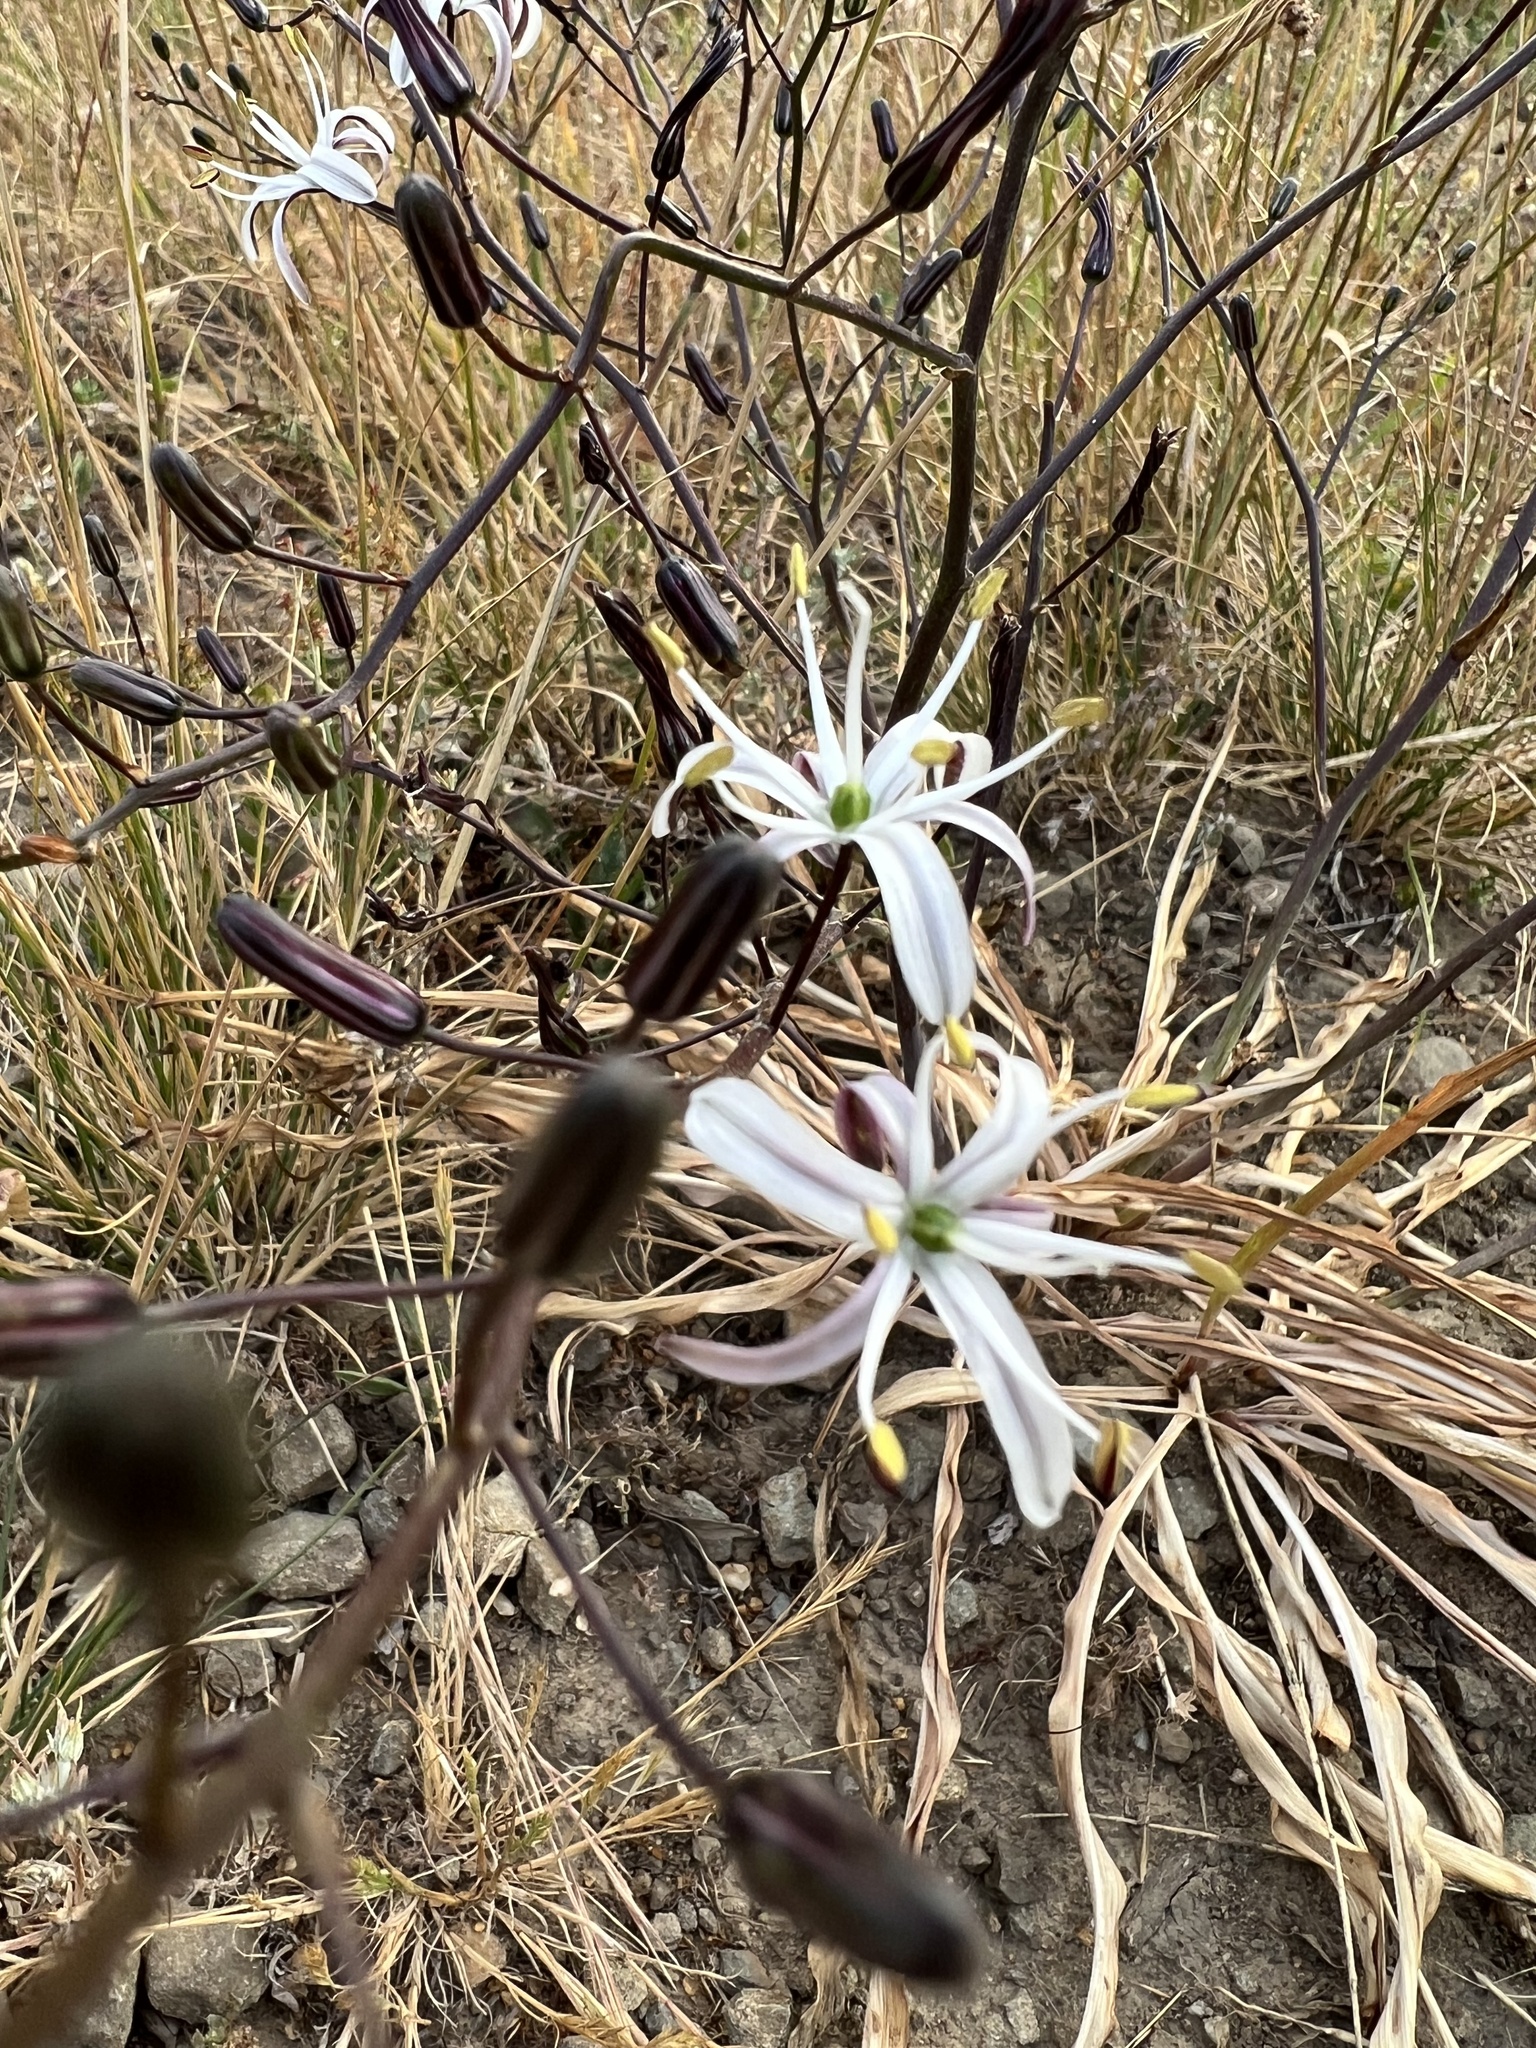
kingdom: Plantae
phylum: Tracheophyta
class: Liliopsida
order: Asparagales
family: Asparagaceae
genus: Chlorogalum
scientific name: Chlorogalum pomeridianum
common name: Amole
